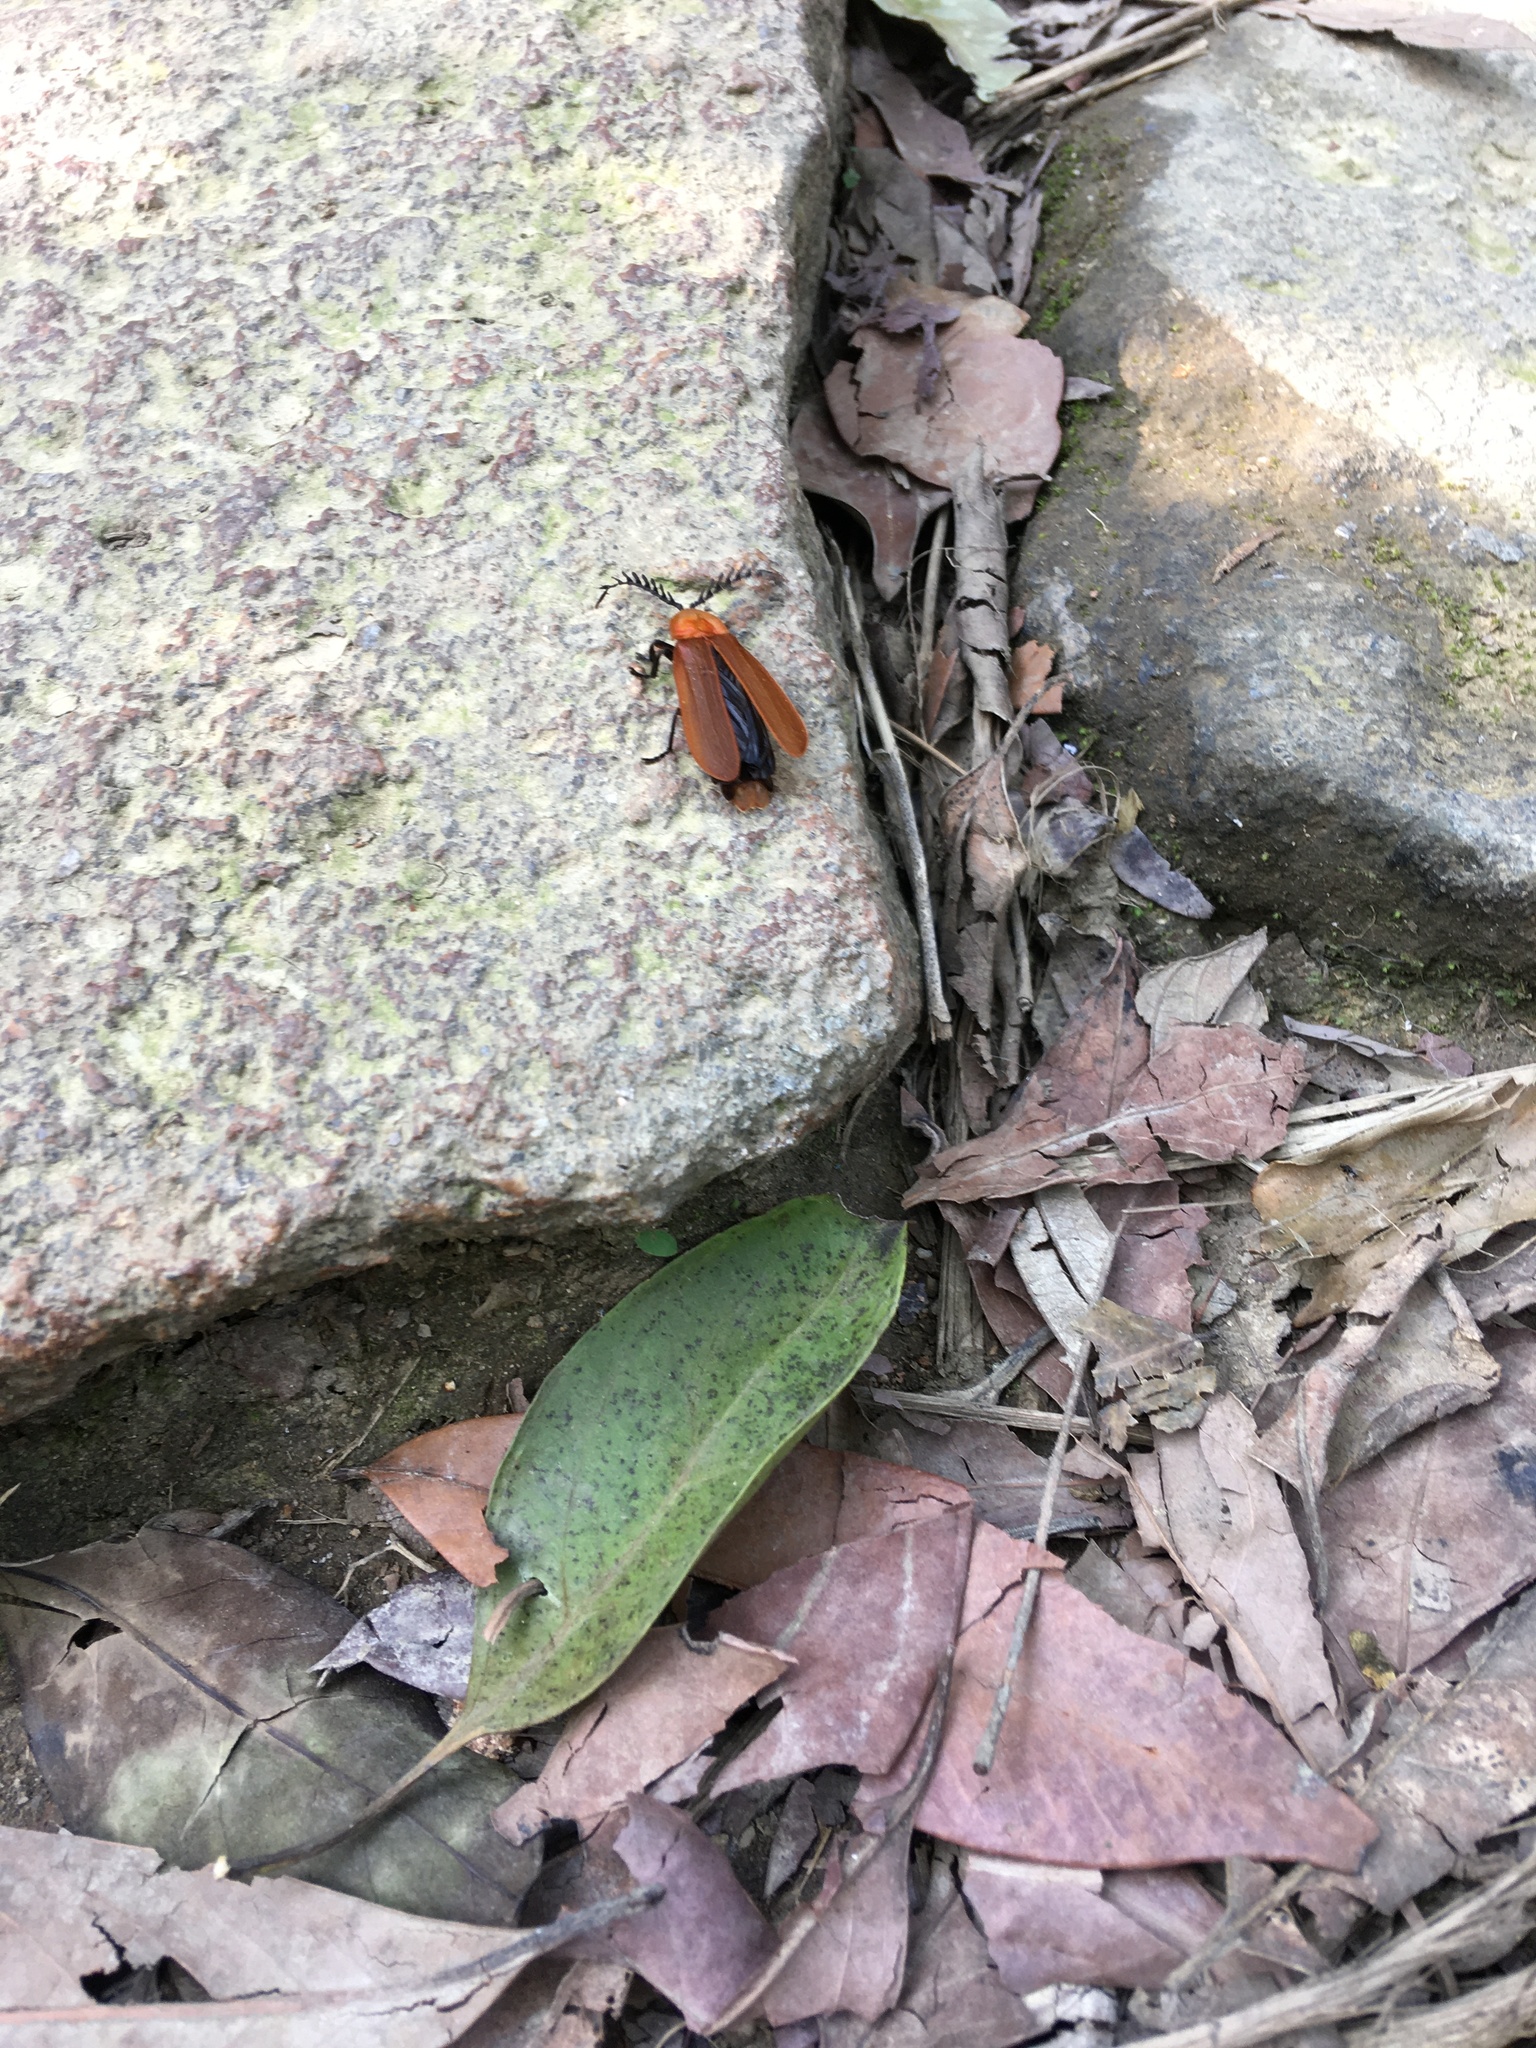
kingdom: Animalia
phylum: Arthropoda
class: Insecta
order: Coleoptera
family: Lampyridae
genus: Vesta
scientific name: Vesta sinuata
